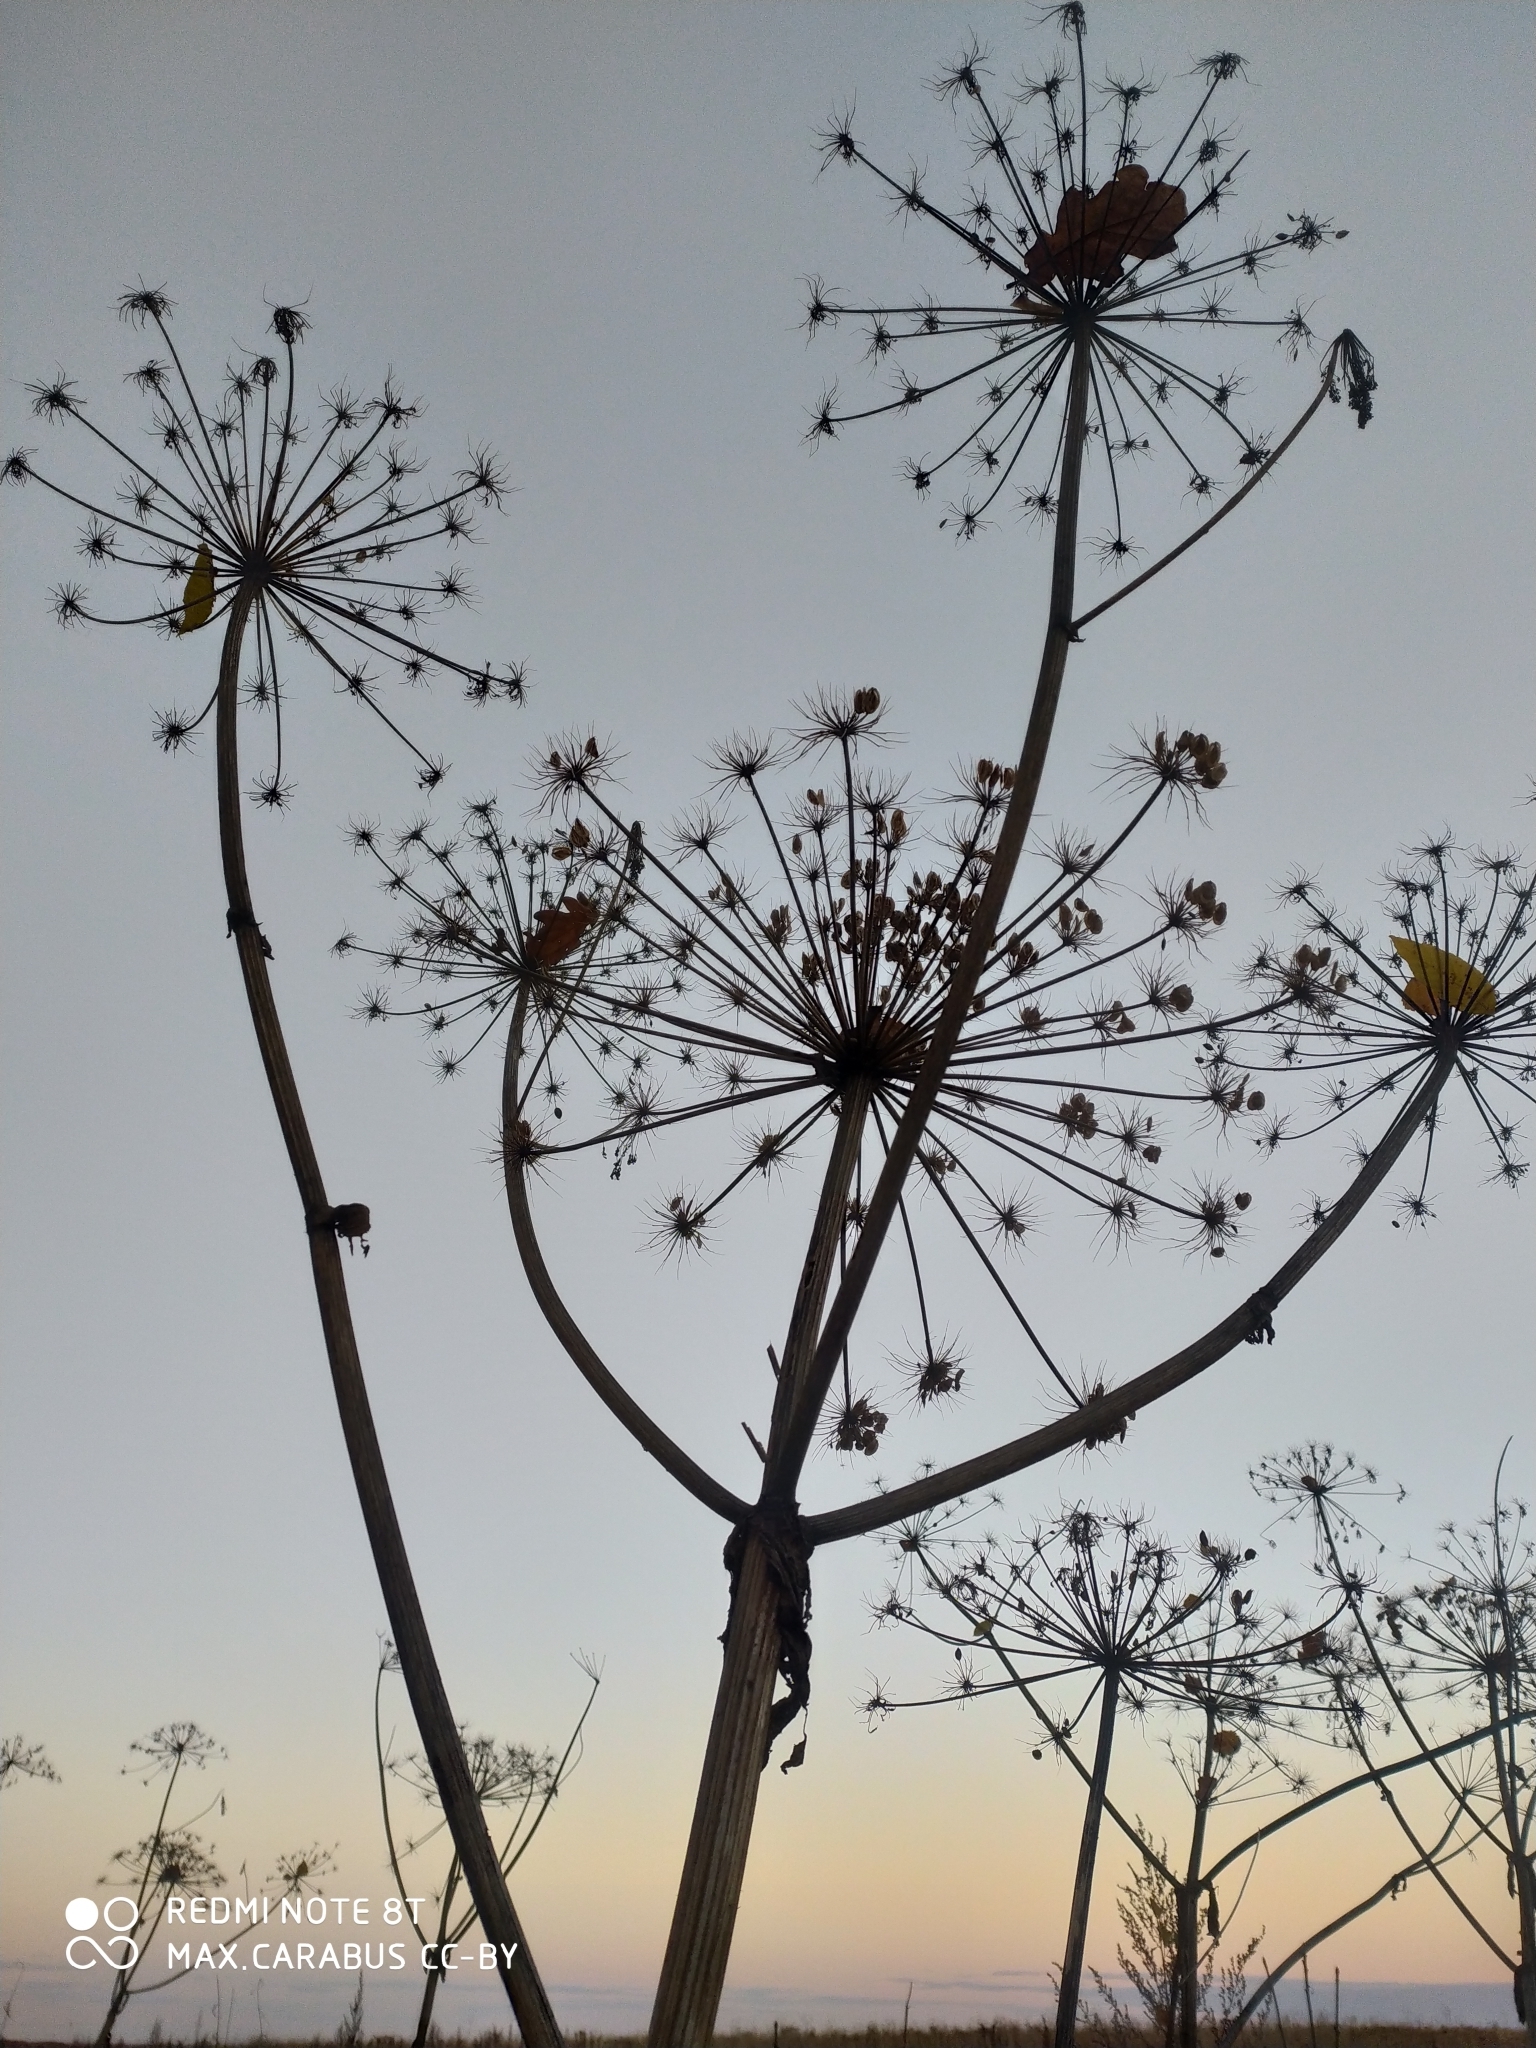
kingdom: Plantae
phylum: Tracheophyta
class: Magnoliopsida
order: Apiales
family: Apiaceae
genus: Heracleum
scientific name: Heracleum sosnowskyi
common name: Sosnowsky's hogweed
